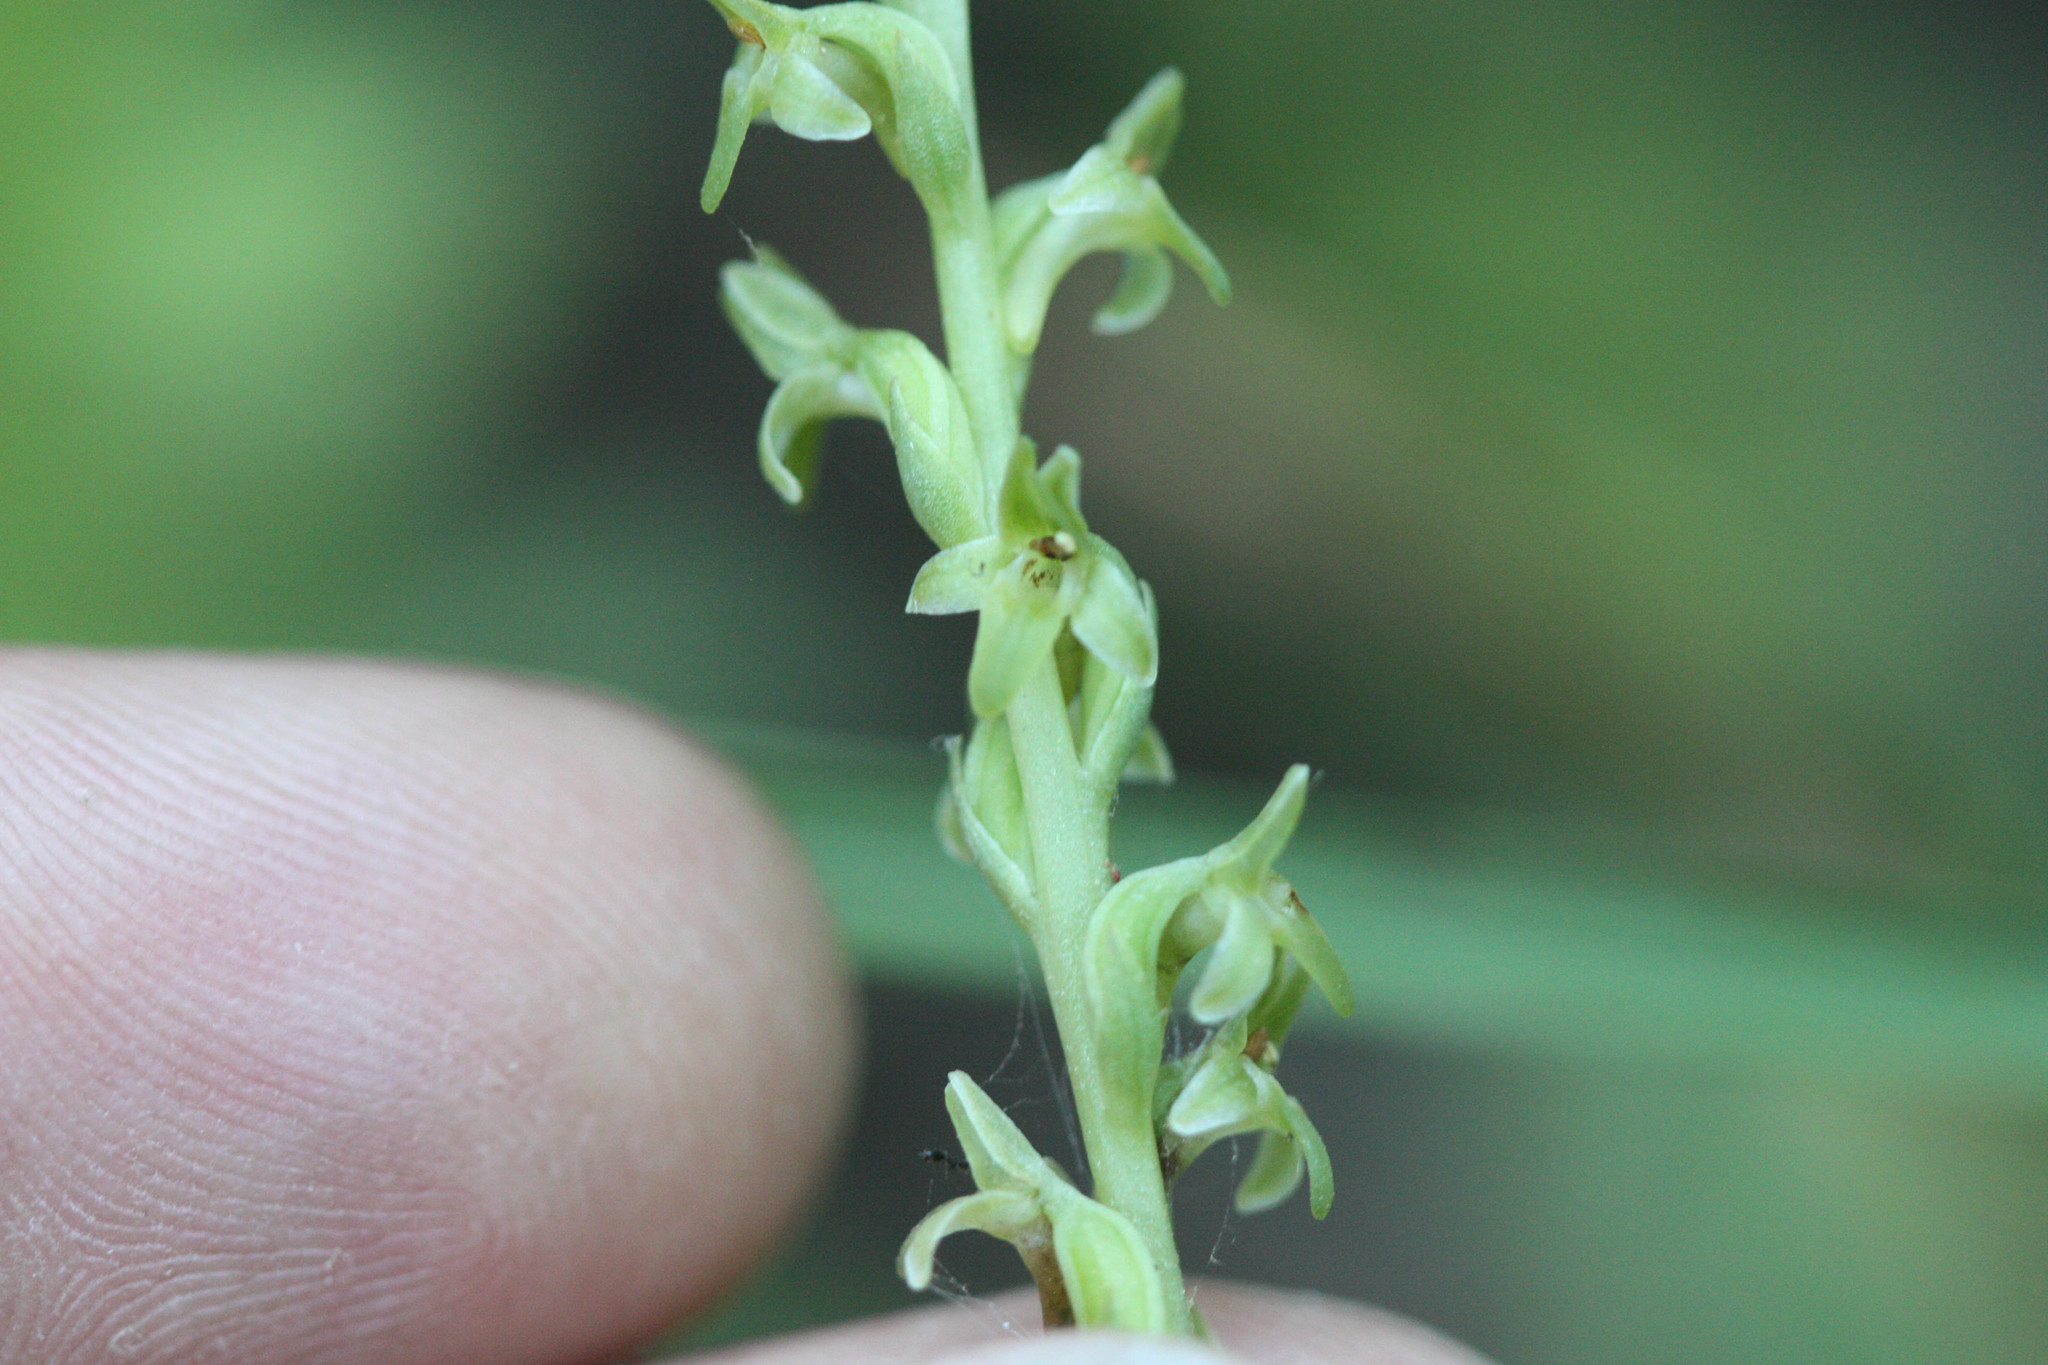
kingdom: Plantae
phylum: Tracheophyta
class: Liliopsida
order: Asparagales
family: Orchidaceae
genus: Platanthera
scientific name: Platanthera unalascensis
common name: Alaska bog orchid
